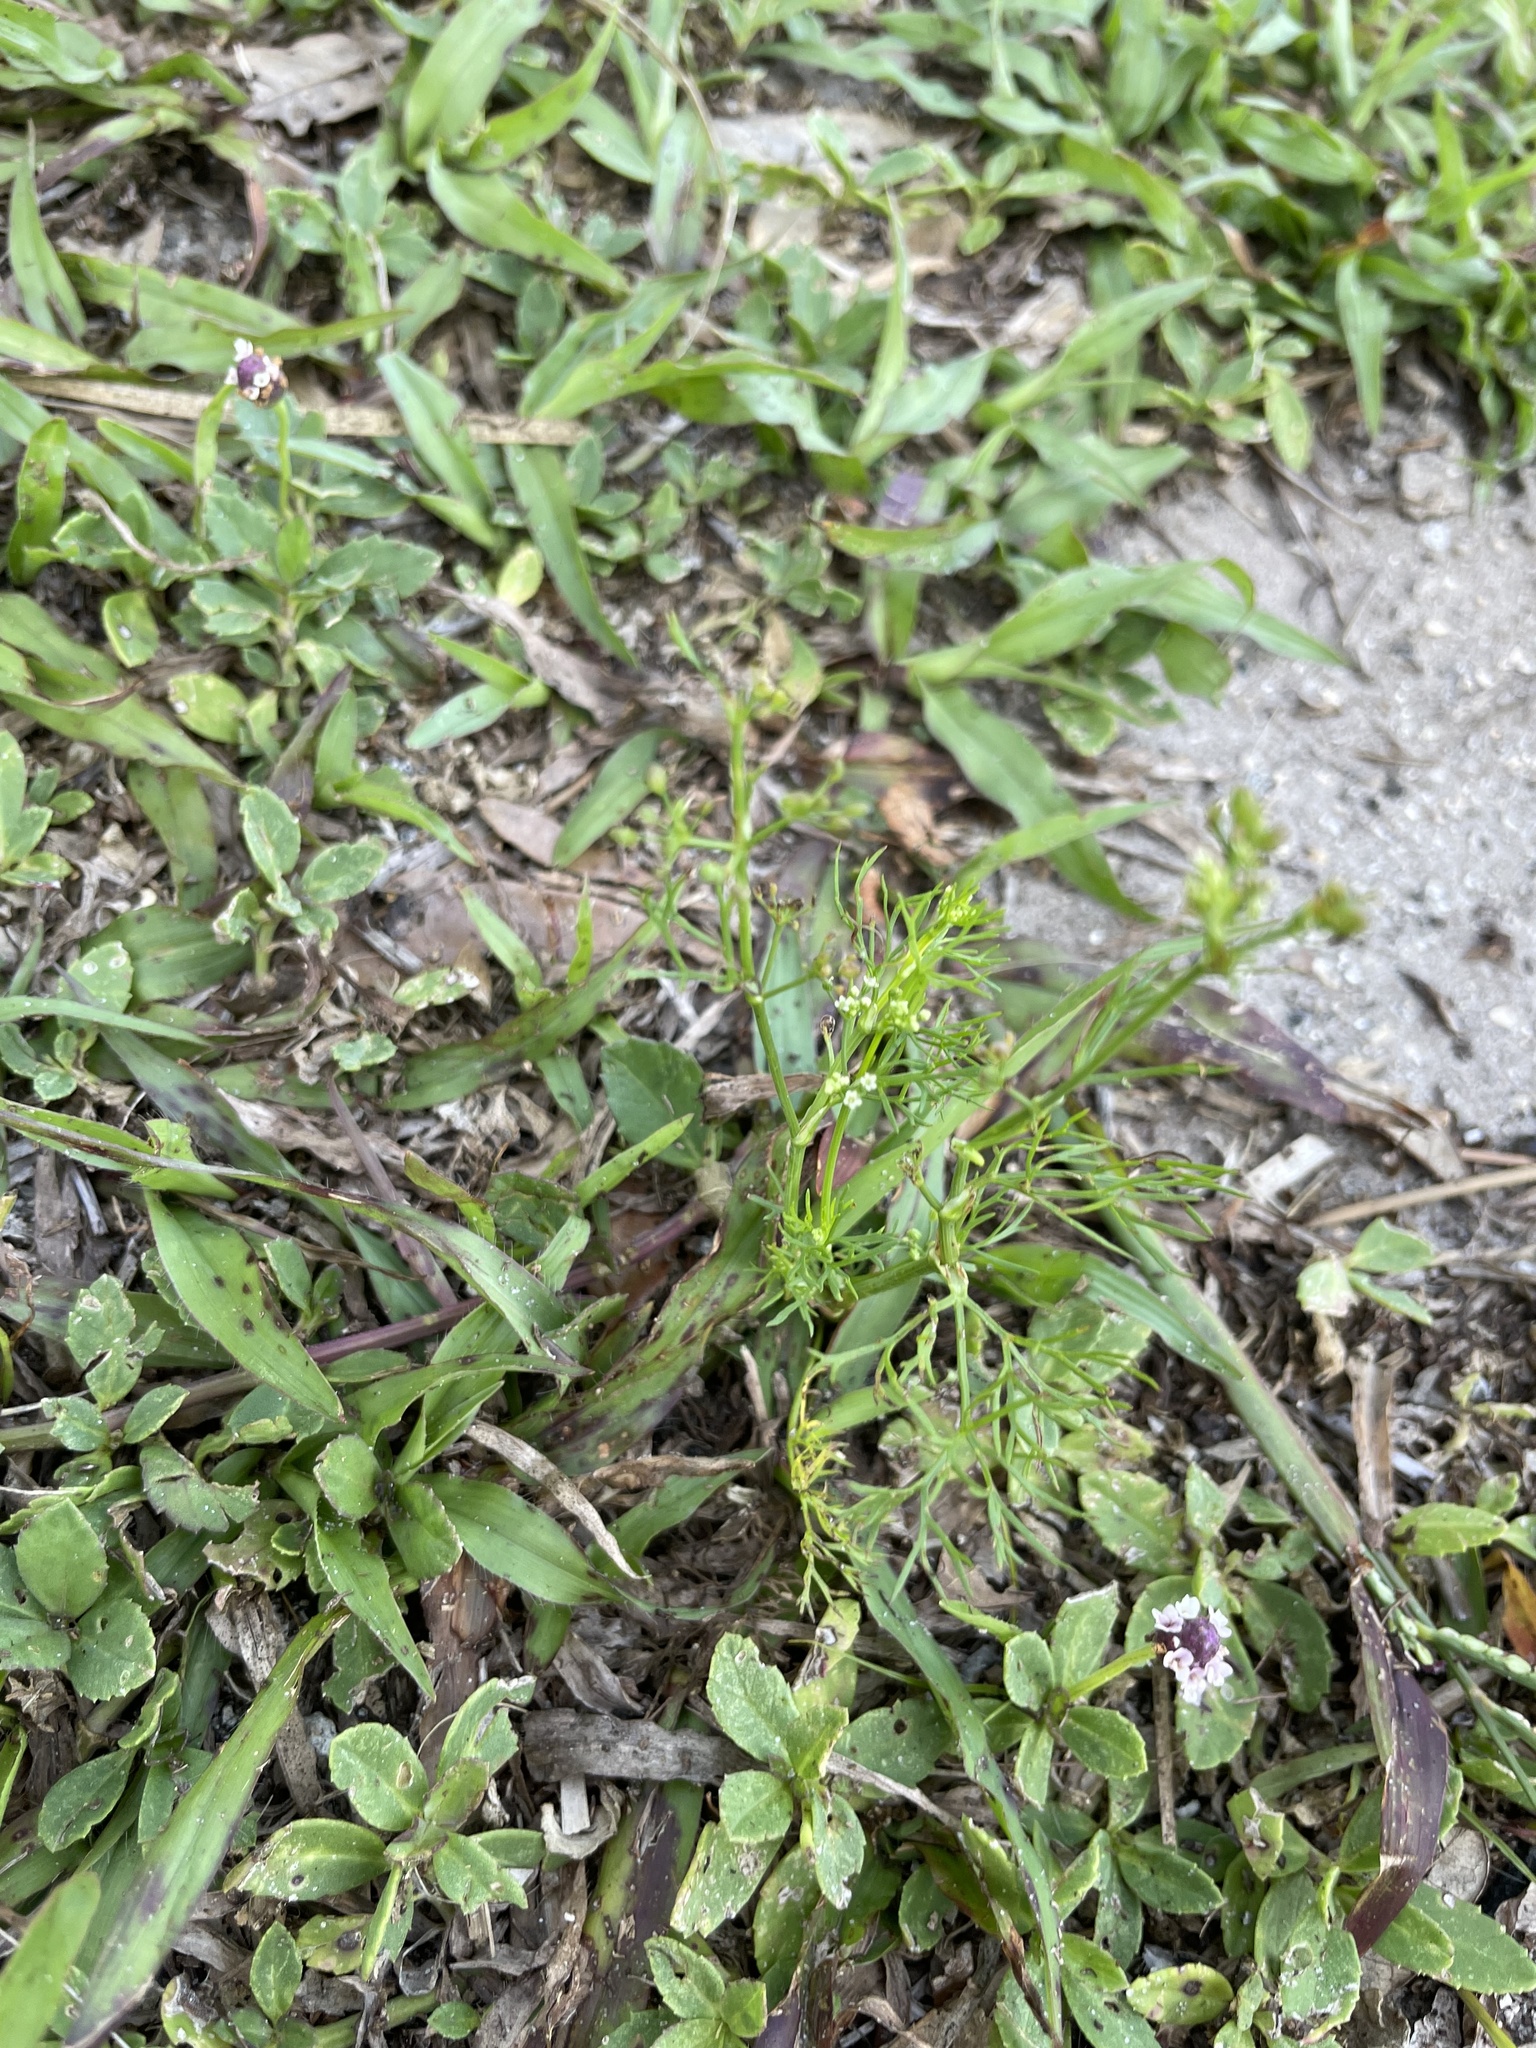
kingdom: Plantae
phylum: Tracheophyta
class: Magnoliopsida
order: Apiales
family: Apiaceae
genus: Ptilimnium
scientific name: Ptilimnium capillaceum
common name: Herbwilliam
